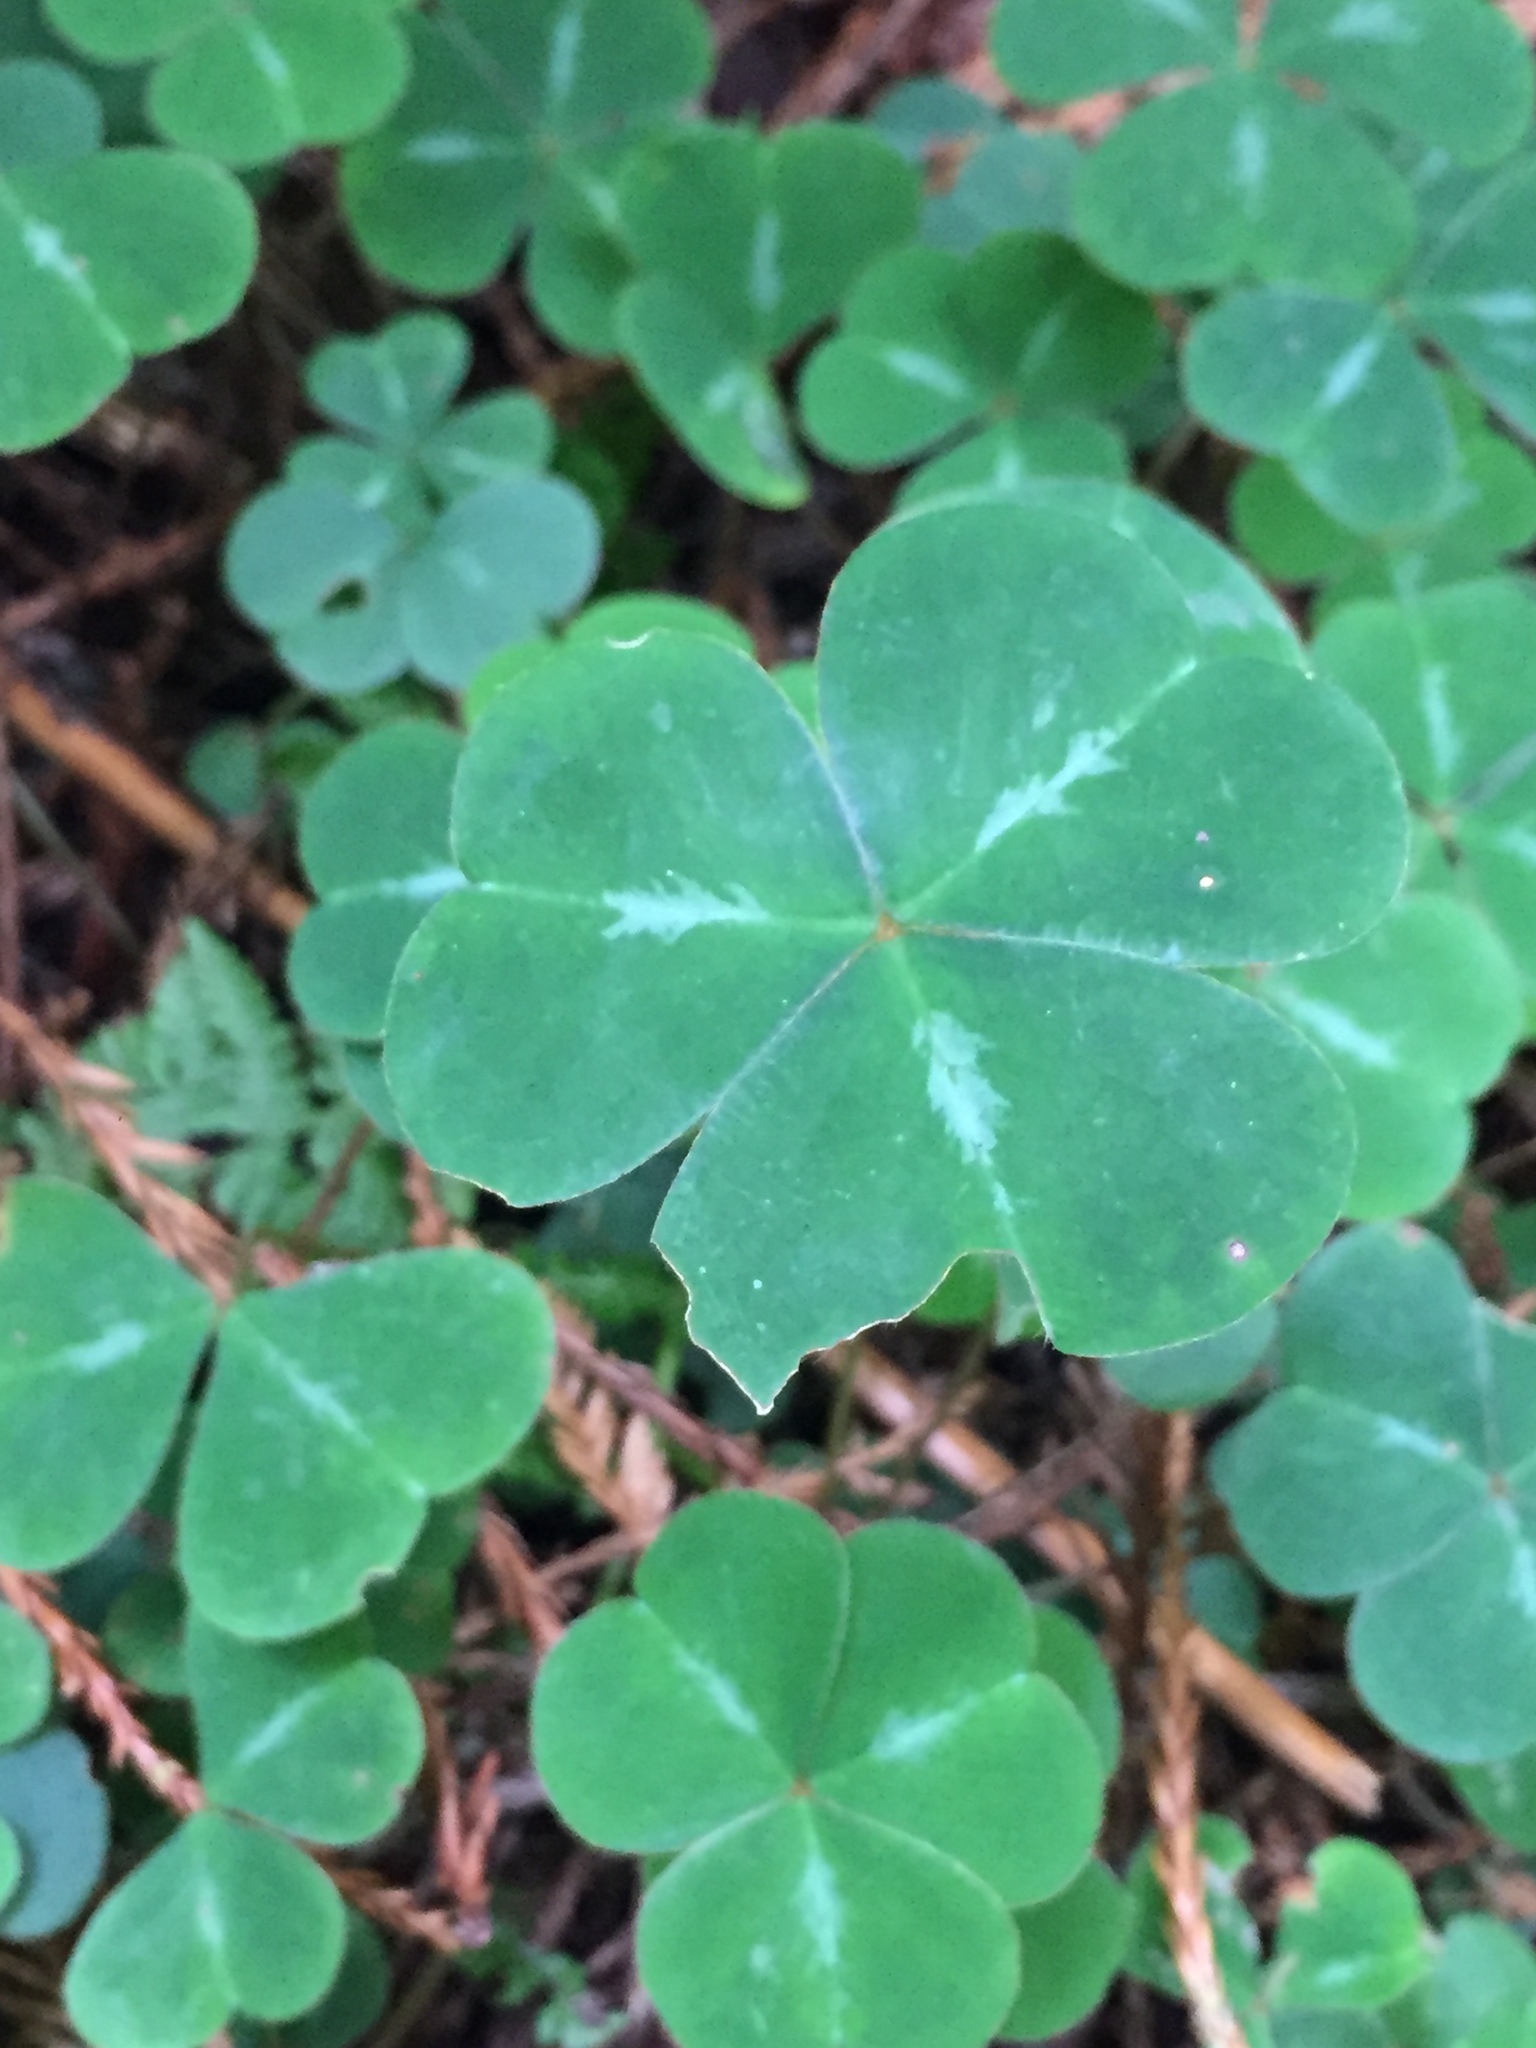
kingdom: Plantae
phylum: Tracheophyta
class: Magnoliopsida
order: Oxalidales
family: Oxalidaceae
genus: Oxalis
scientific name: Oxalis oregana
